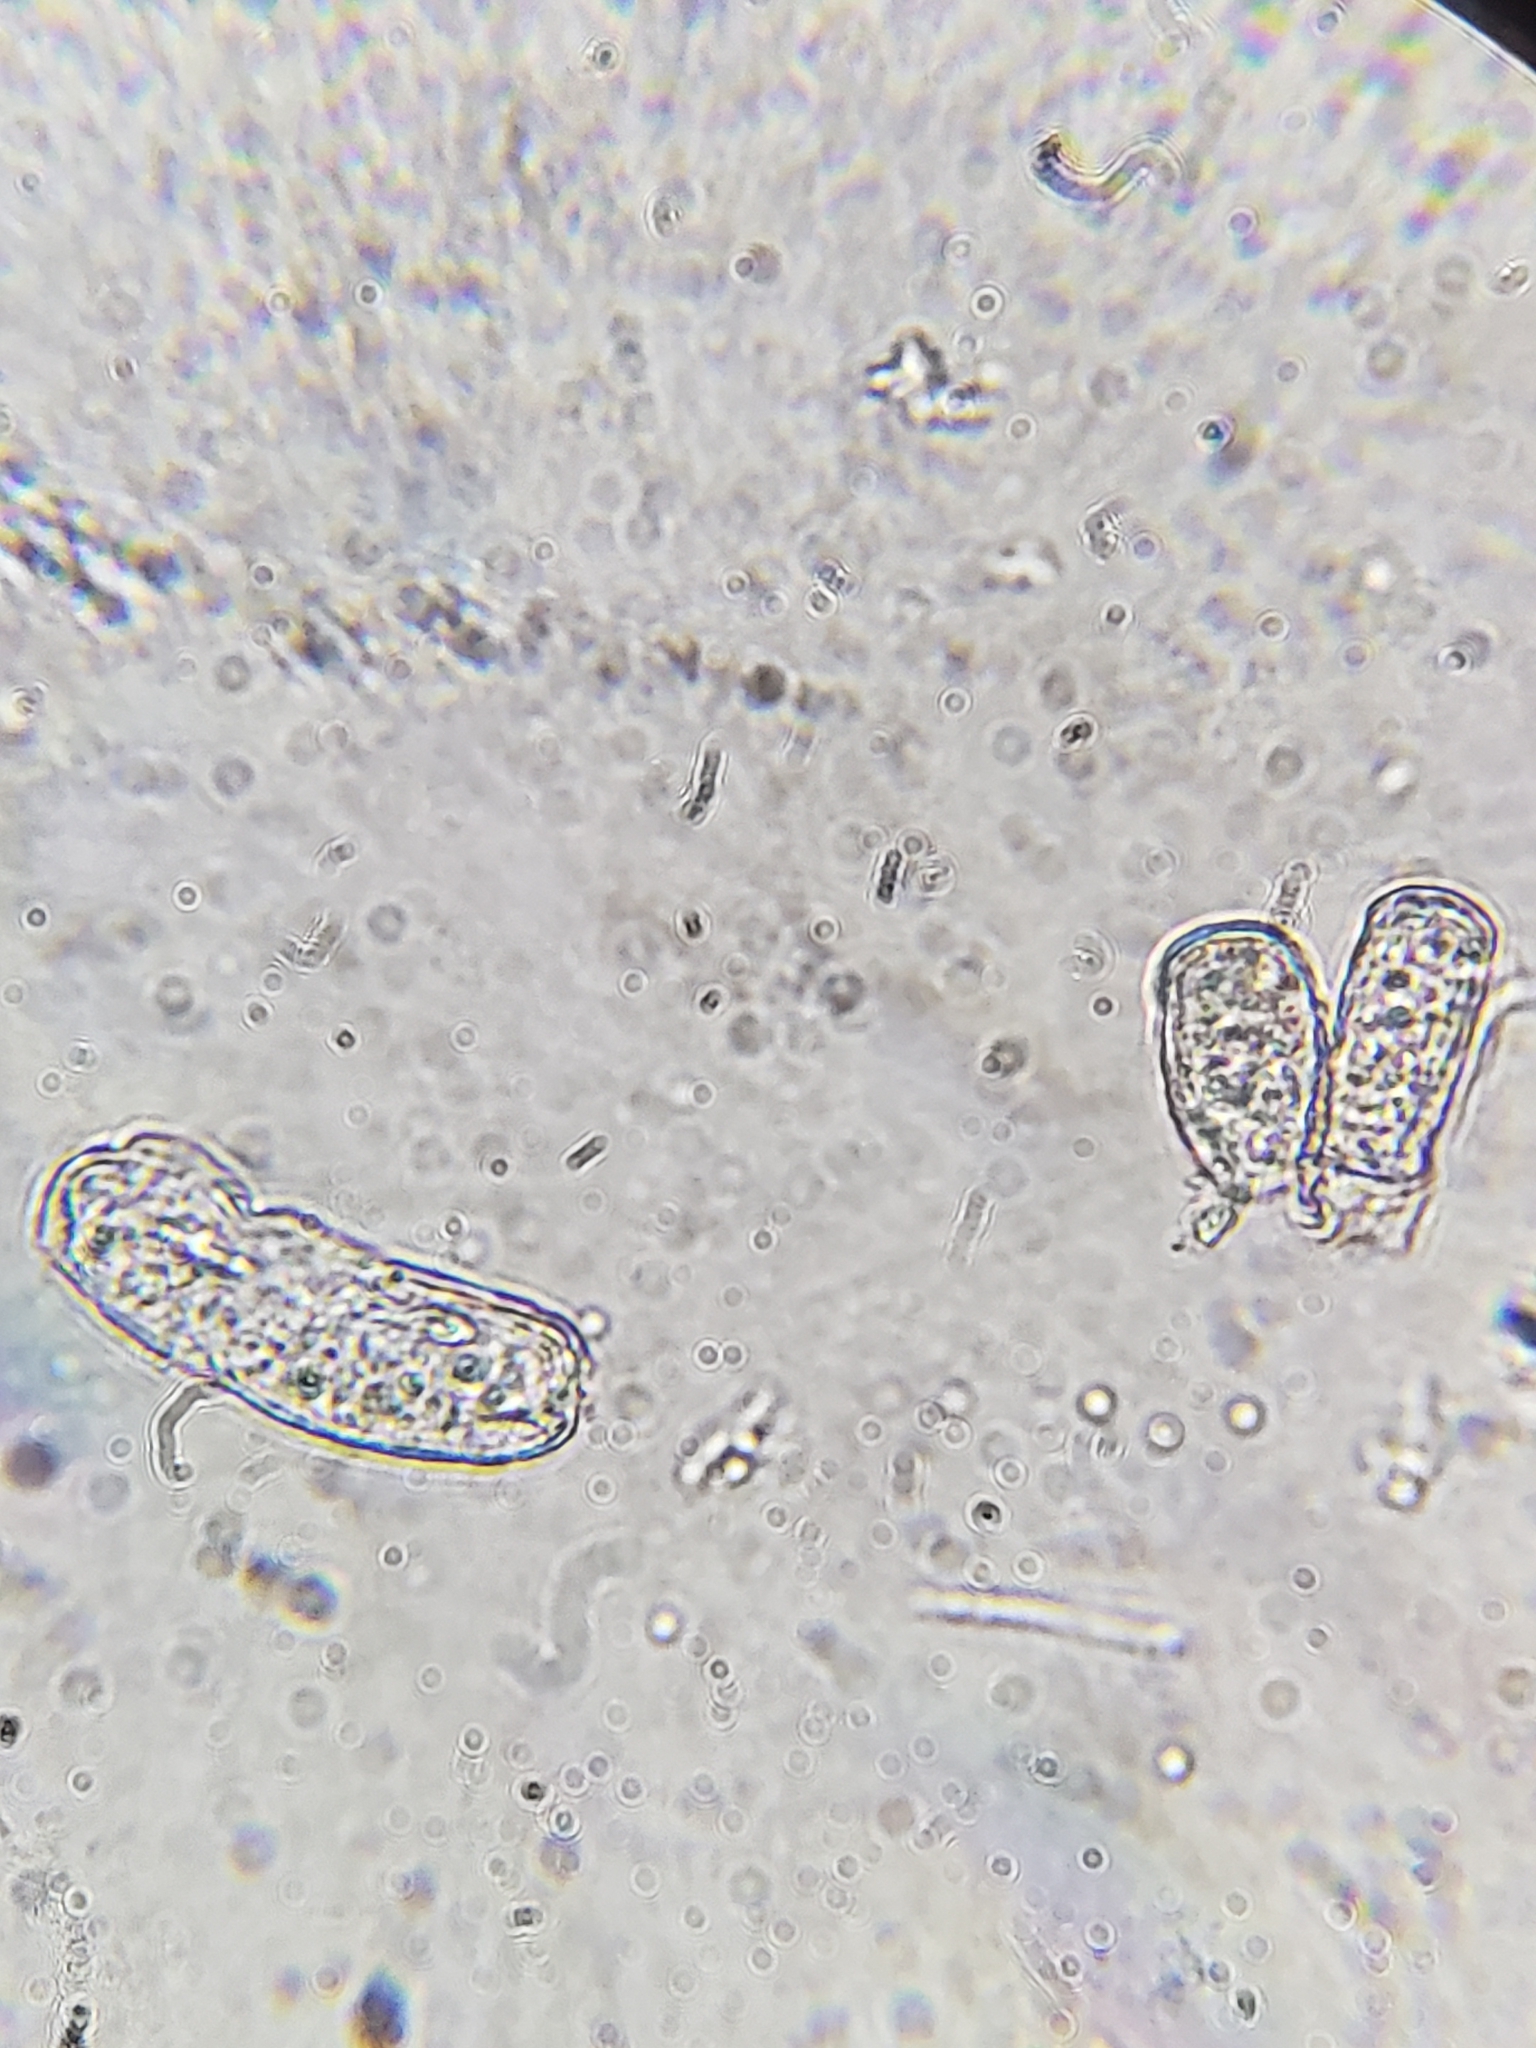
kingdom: Fungi
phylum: Ascomycota
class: Leotiomycetes
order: Helotiales
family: Erysiphaceae
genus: Podosphaera
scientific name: Podosphaera pannosa
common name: Rose mildew
